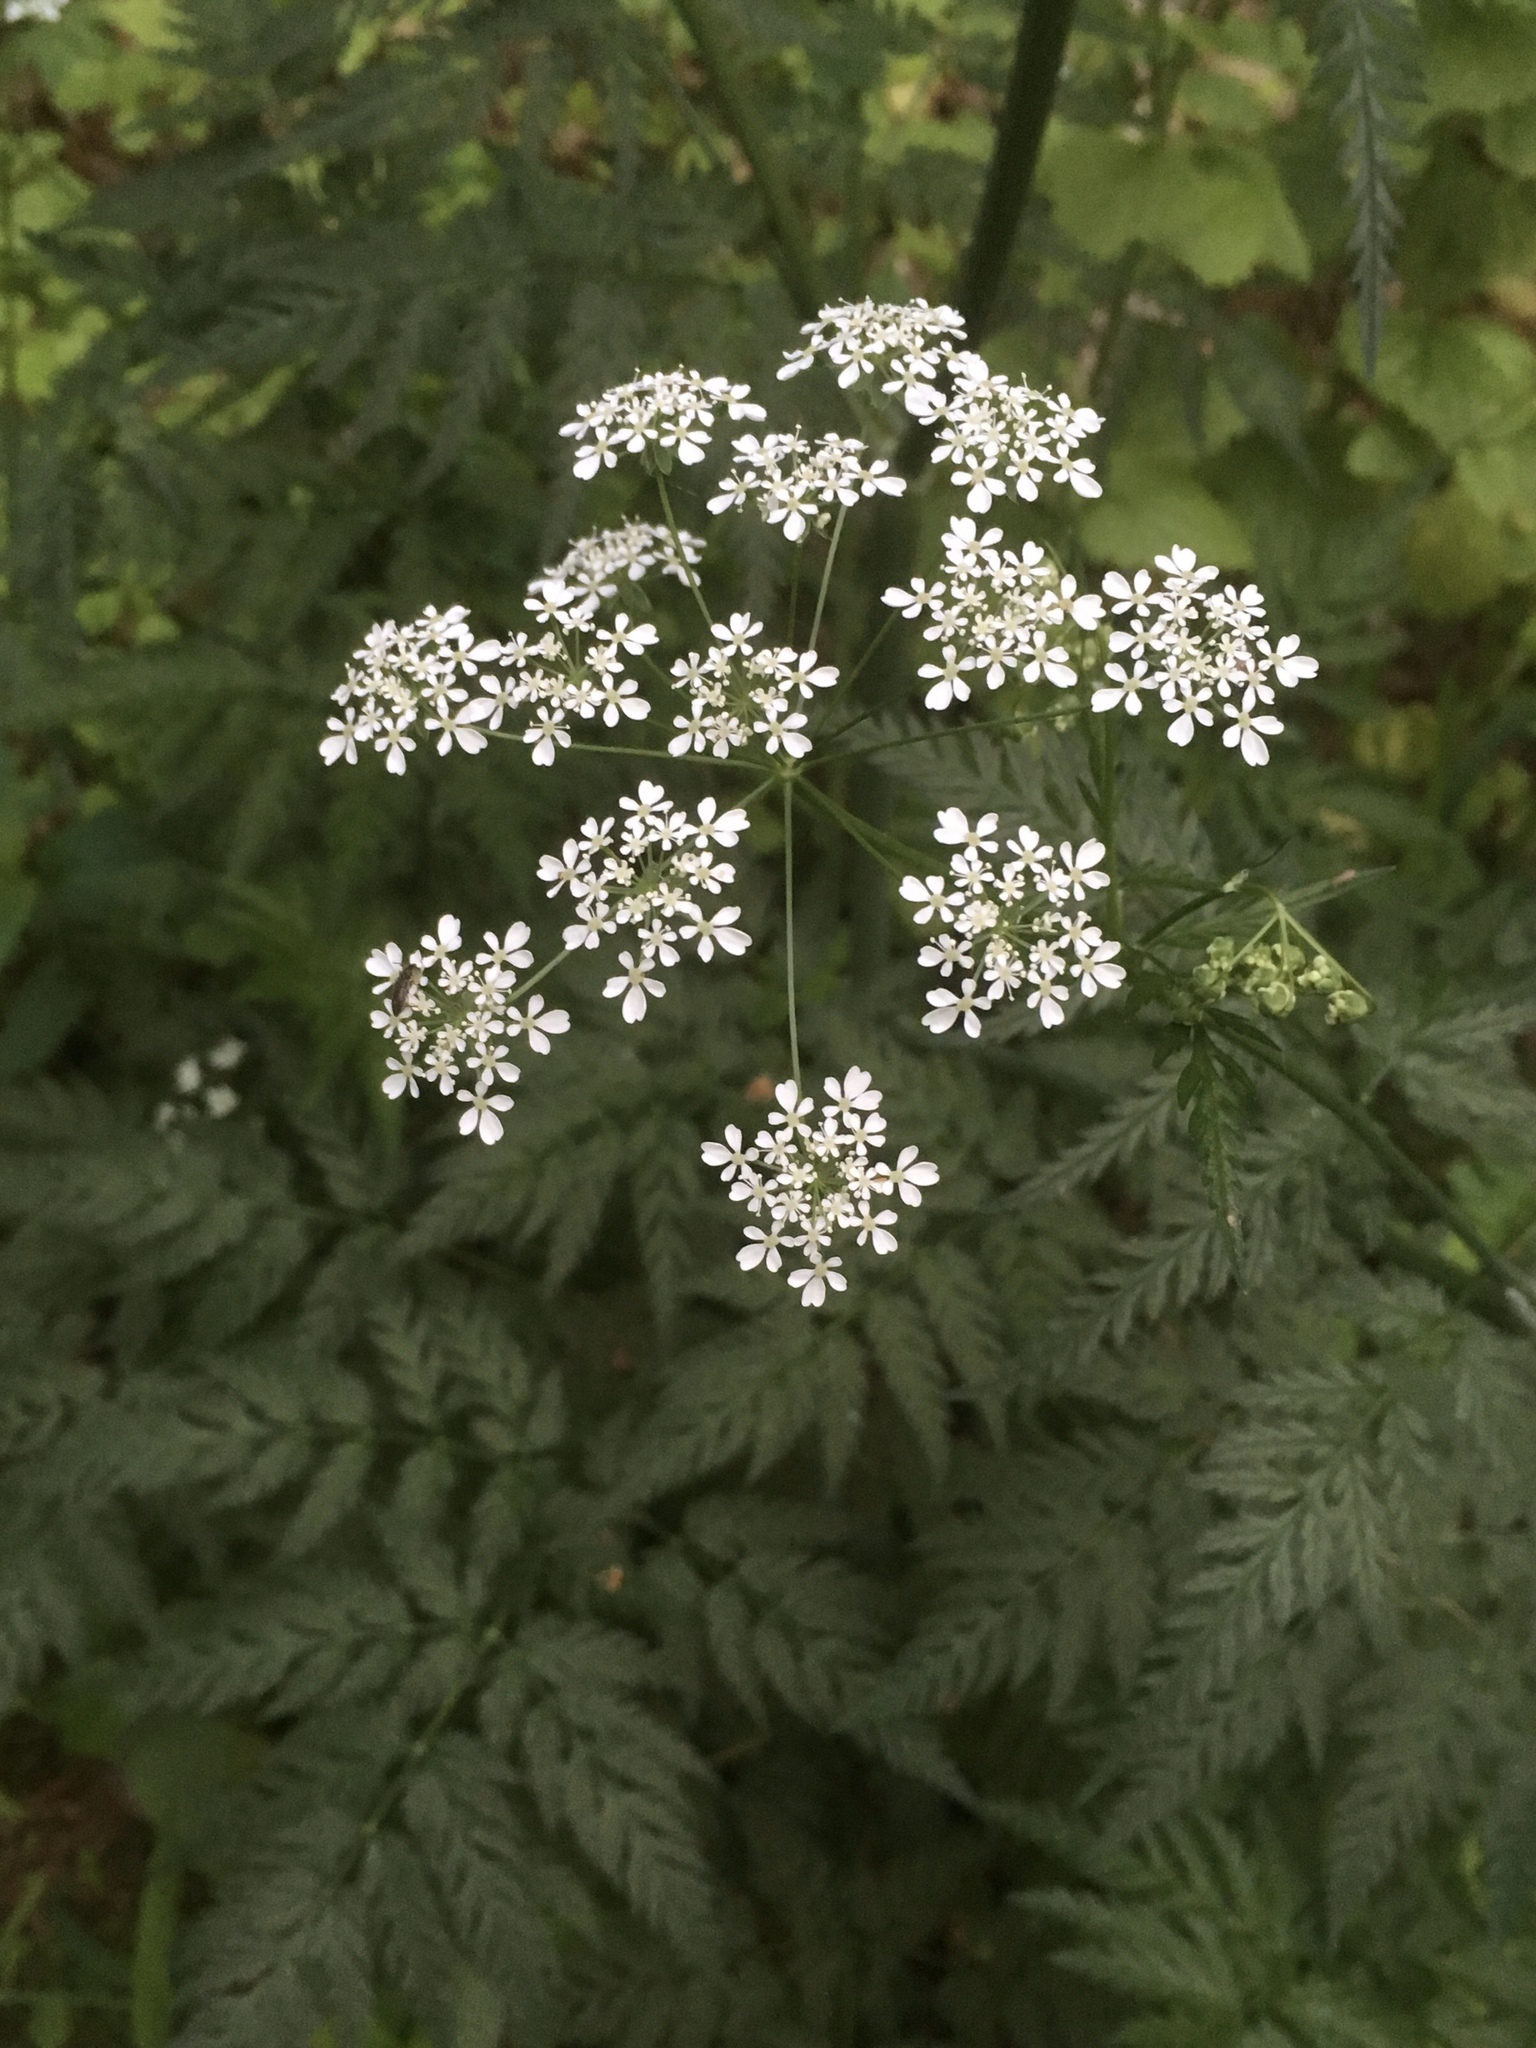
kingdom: Plantae
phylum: Tracheophyta
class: Magnoliopsida
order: Apiales
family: Apiaceae
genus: Anthriscus
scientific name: Anthriscus sylvestris
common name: Cow parsley
